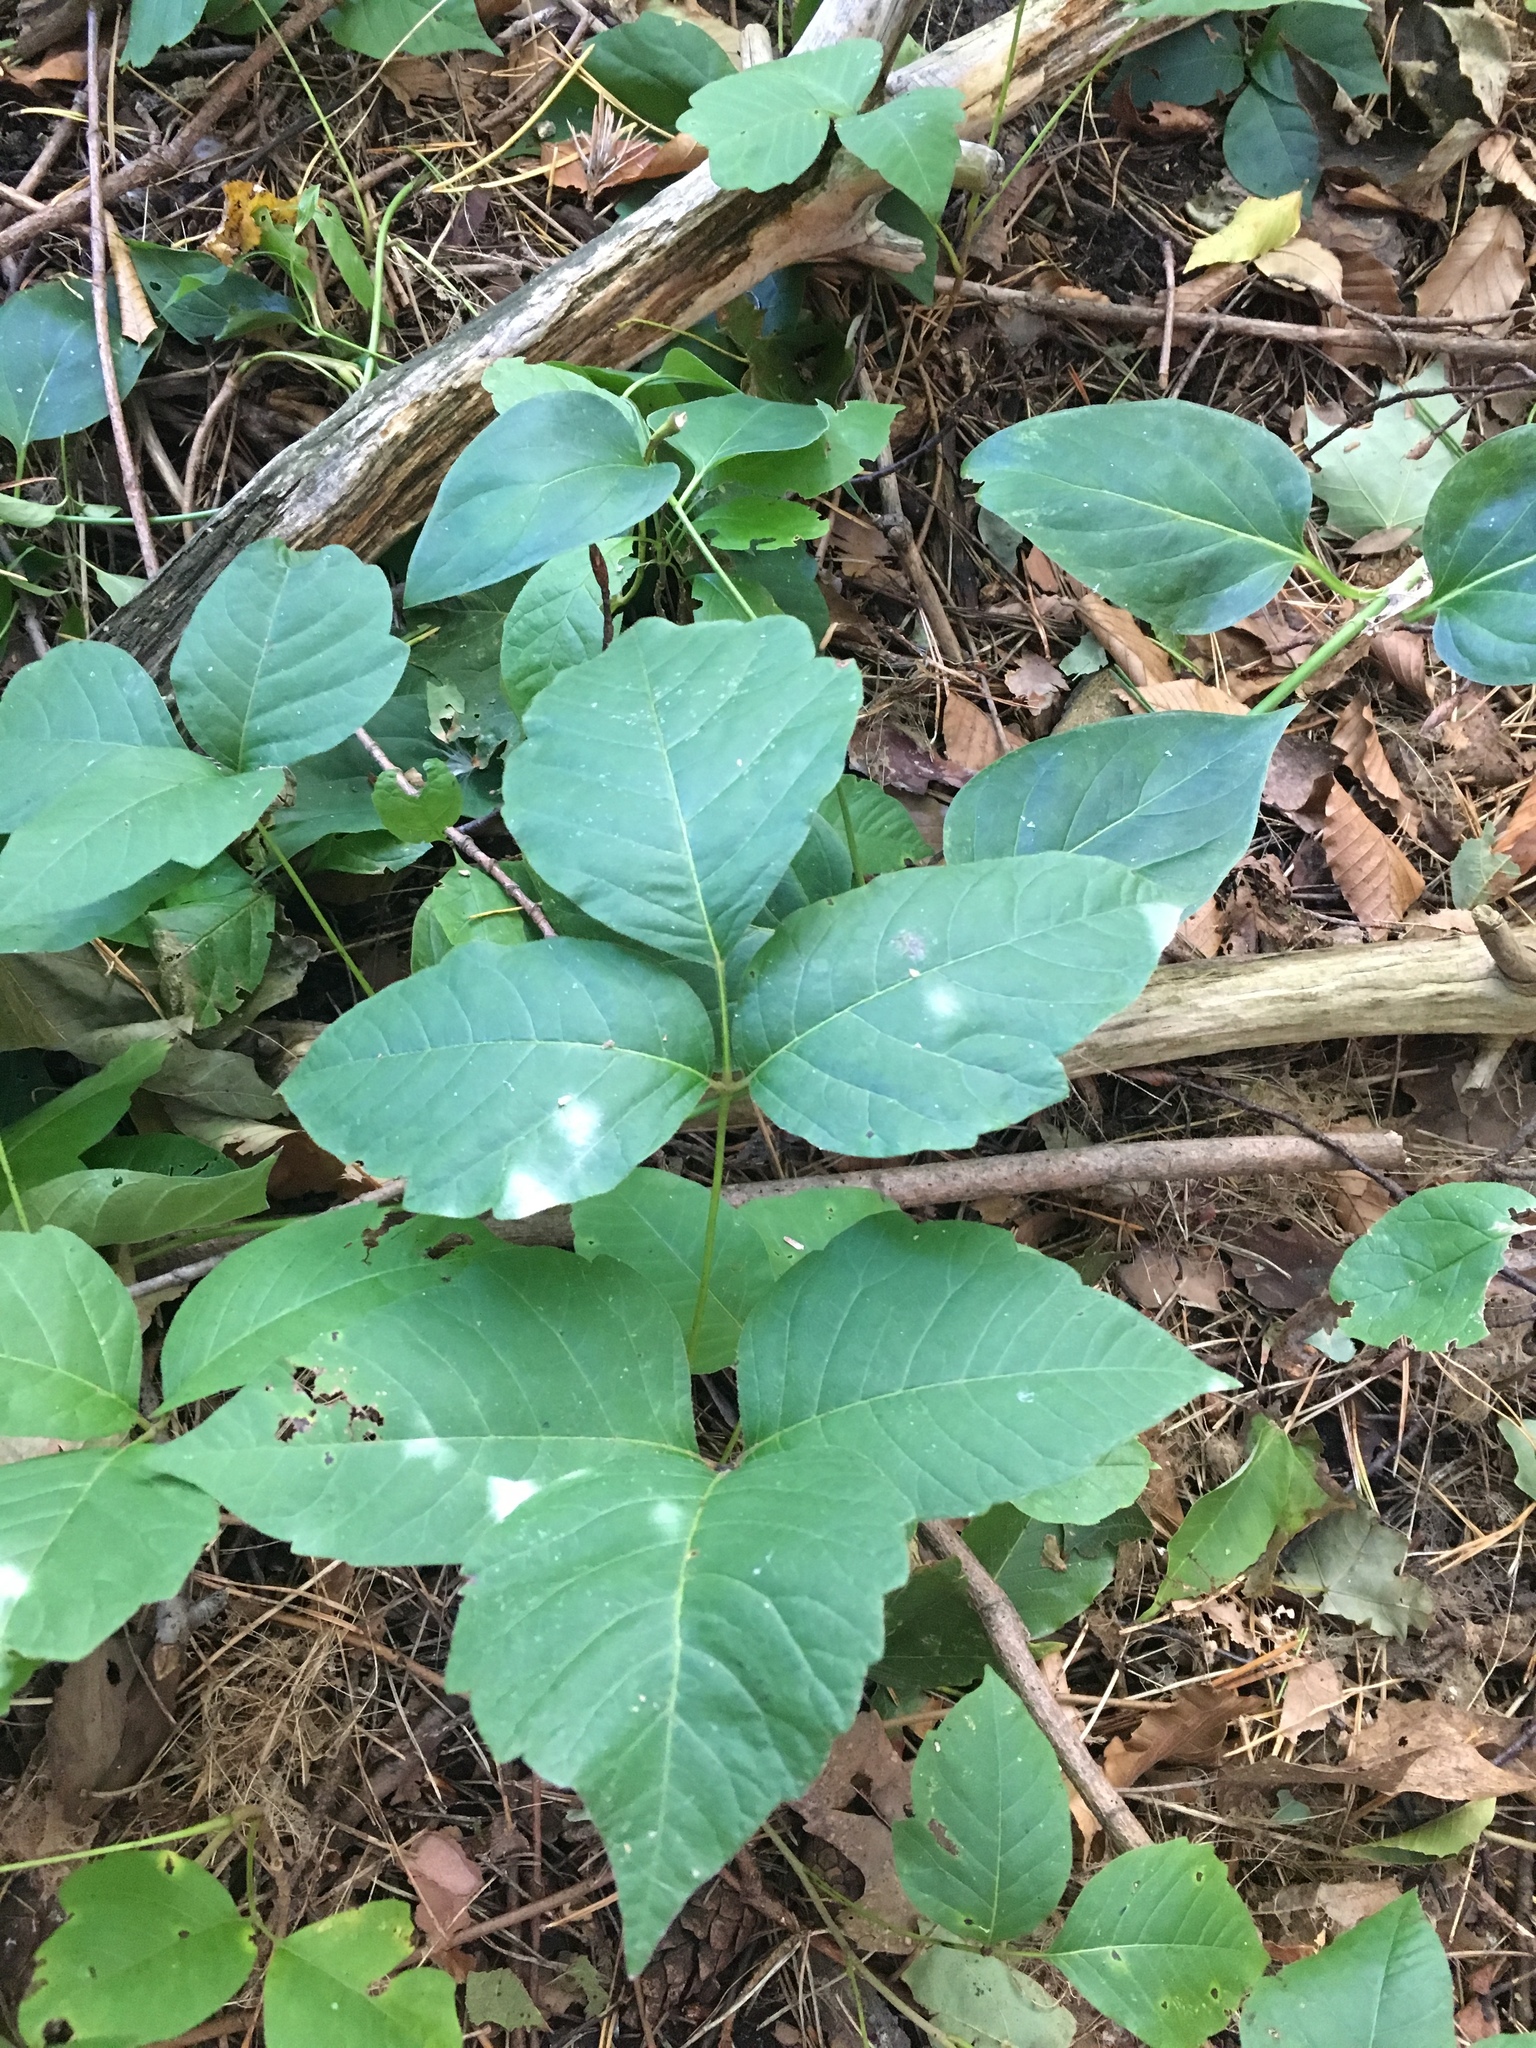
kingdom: Plantae
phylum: Tracheophyta
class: Magnoliopsida
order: Sapindales
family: Anacardiaceae
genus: Toxicodendron
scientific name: Toxicodendron rydbergii
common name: Rydberg's poison-ivy
